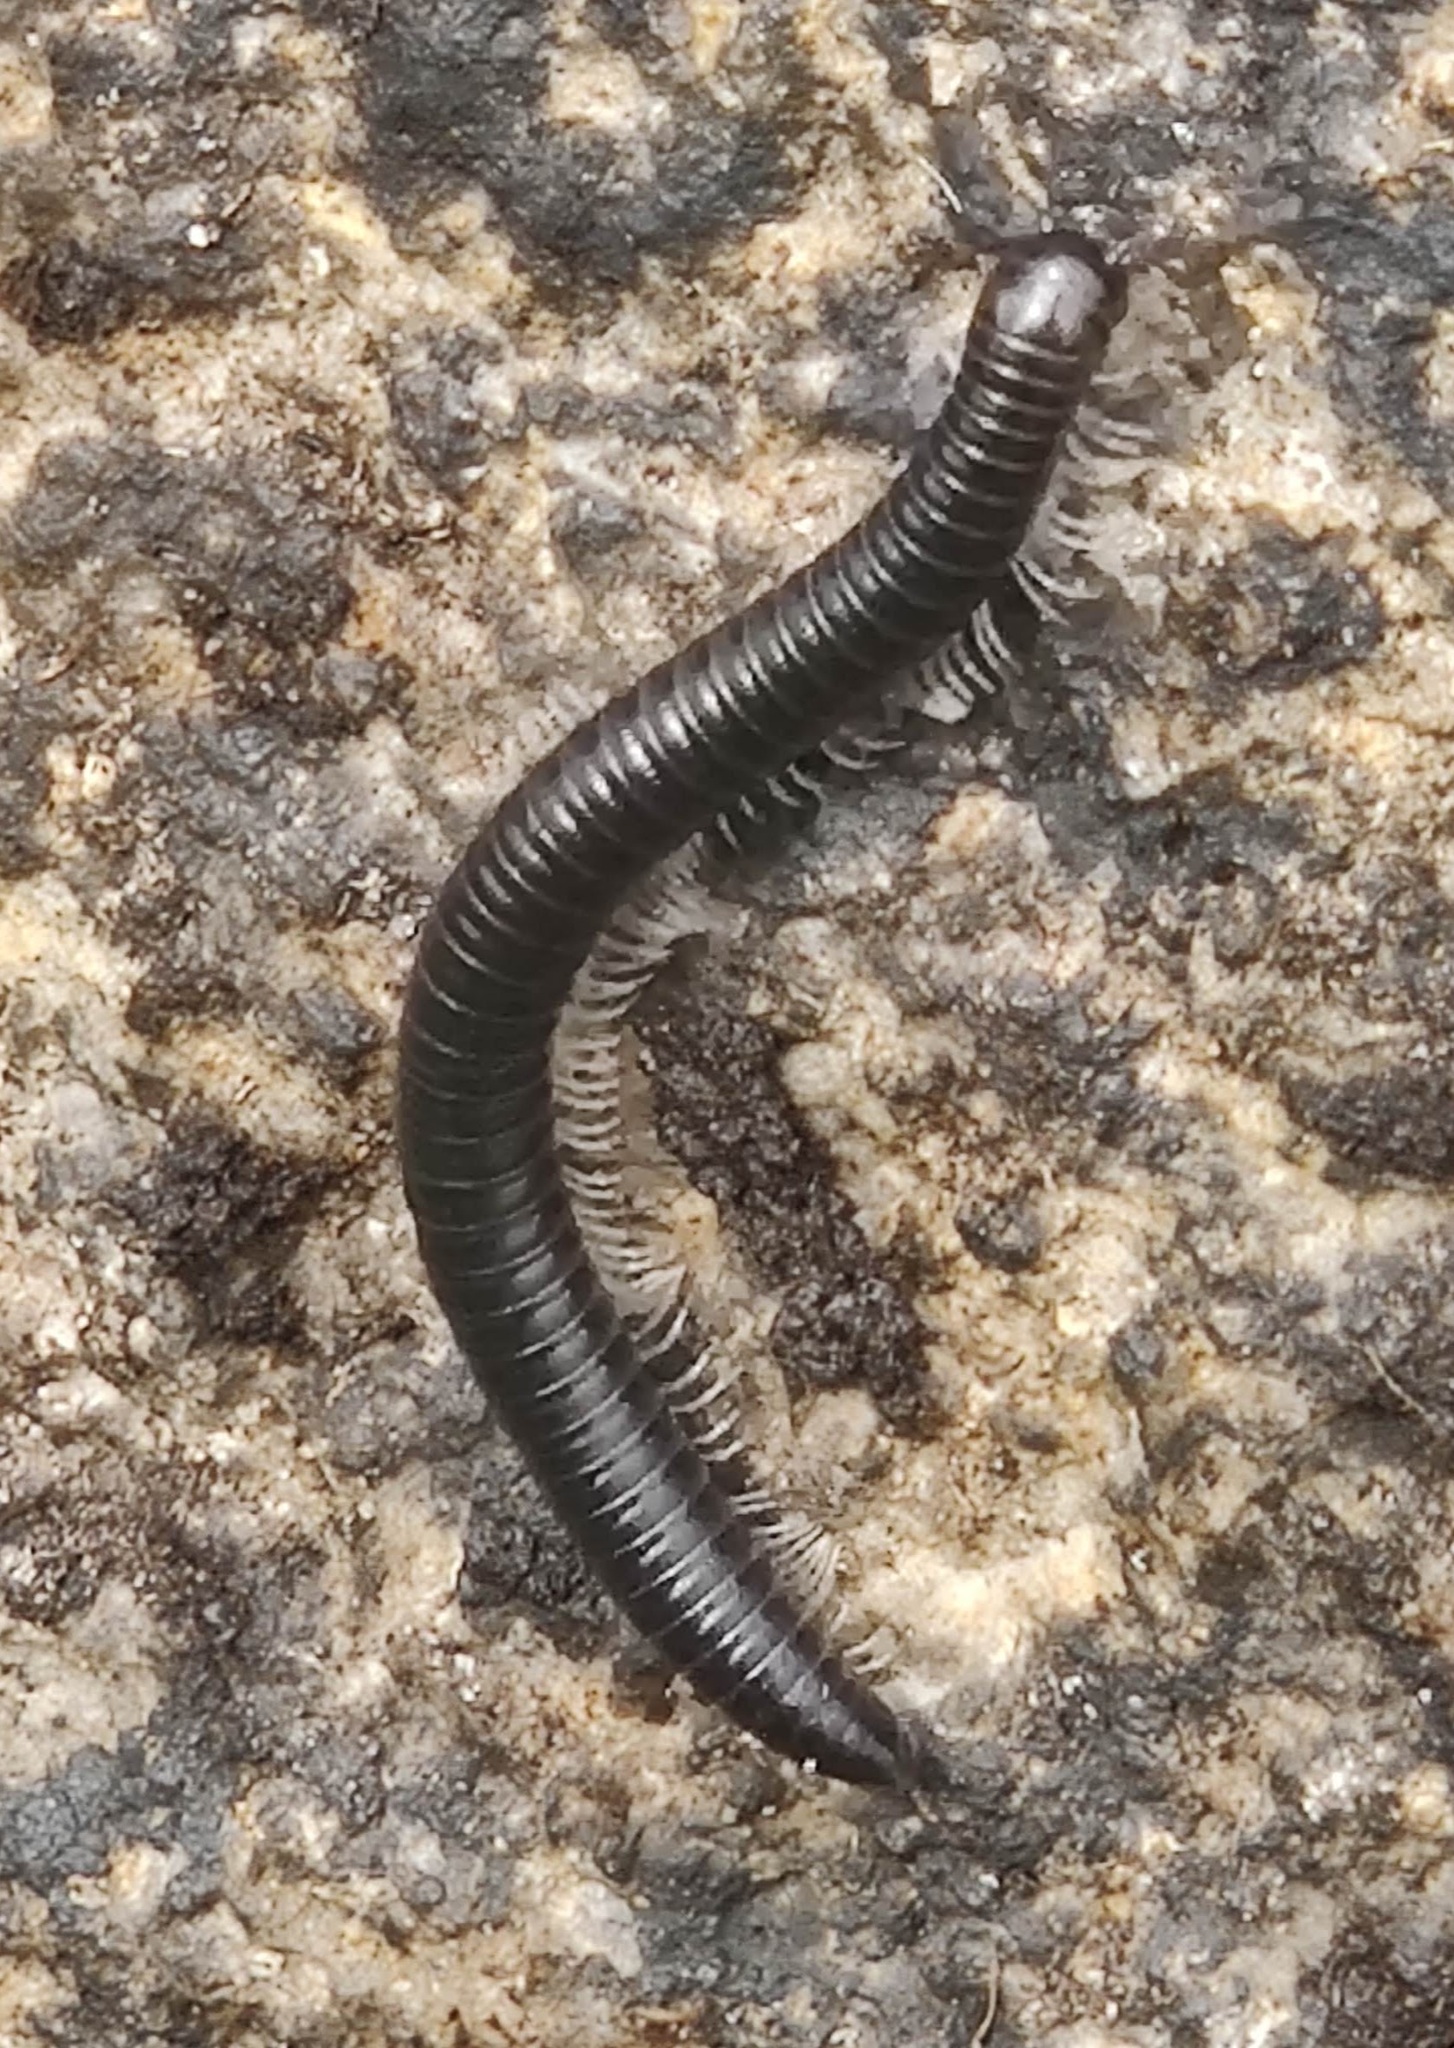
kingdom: Animalia
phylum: Arthropoda
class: Diplopoda
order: Julida
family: Julidae
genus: Tachypodoiulus
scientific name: Tachypodoiulus niger
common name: White-legged snake millipede
